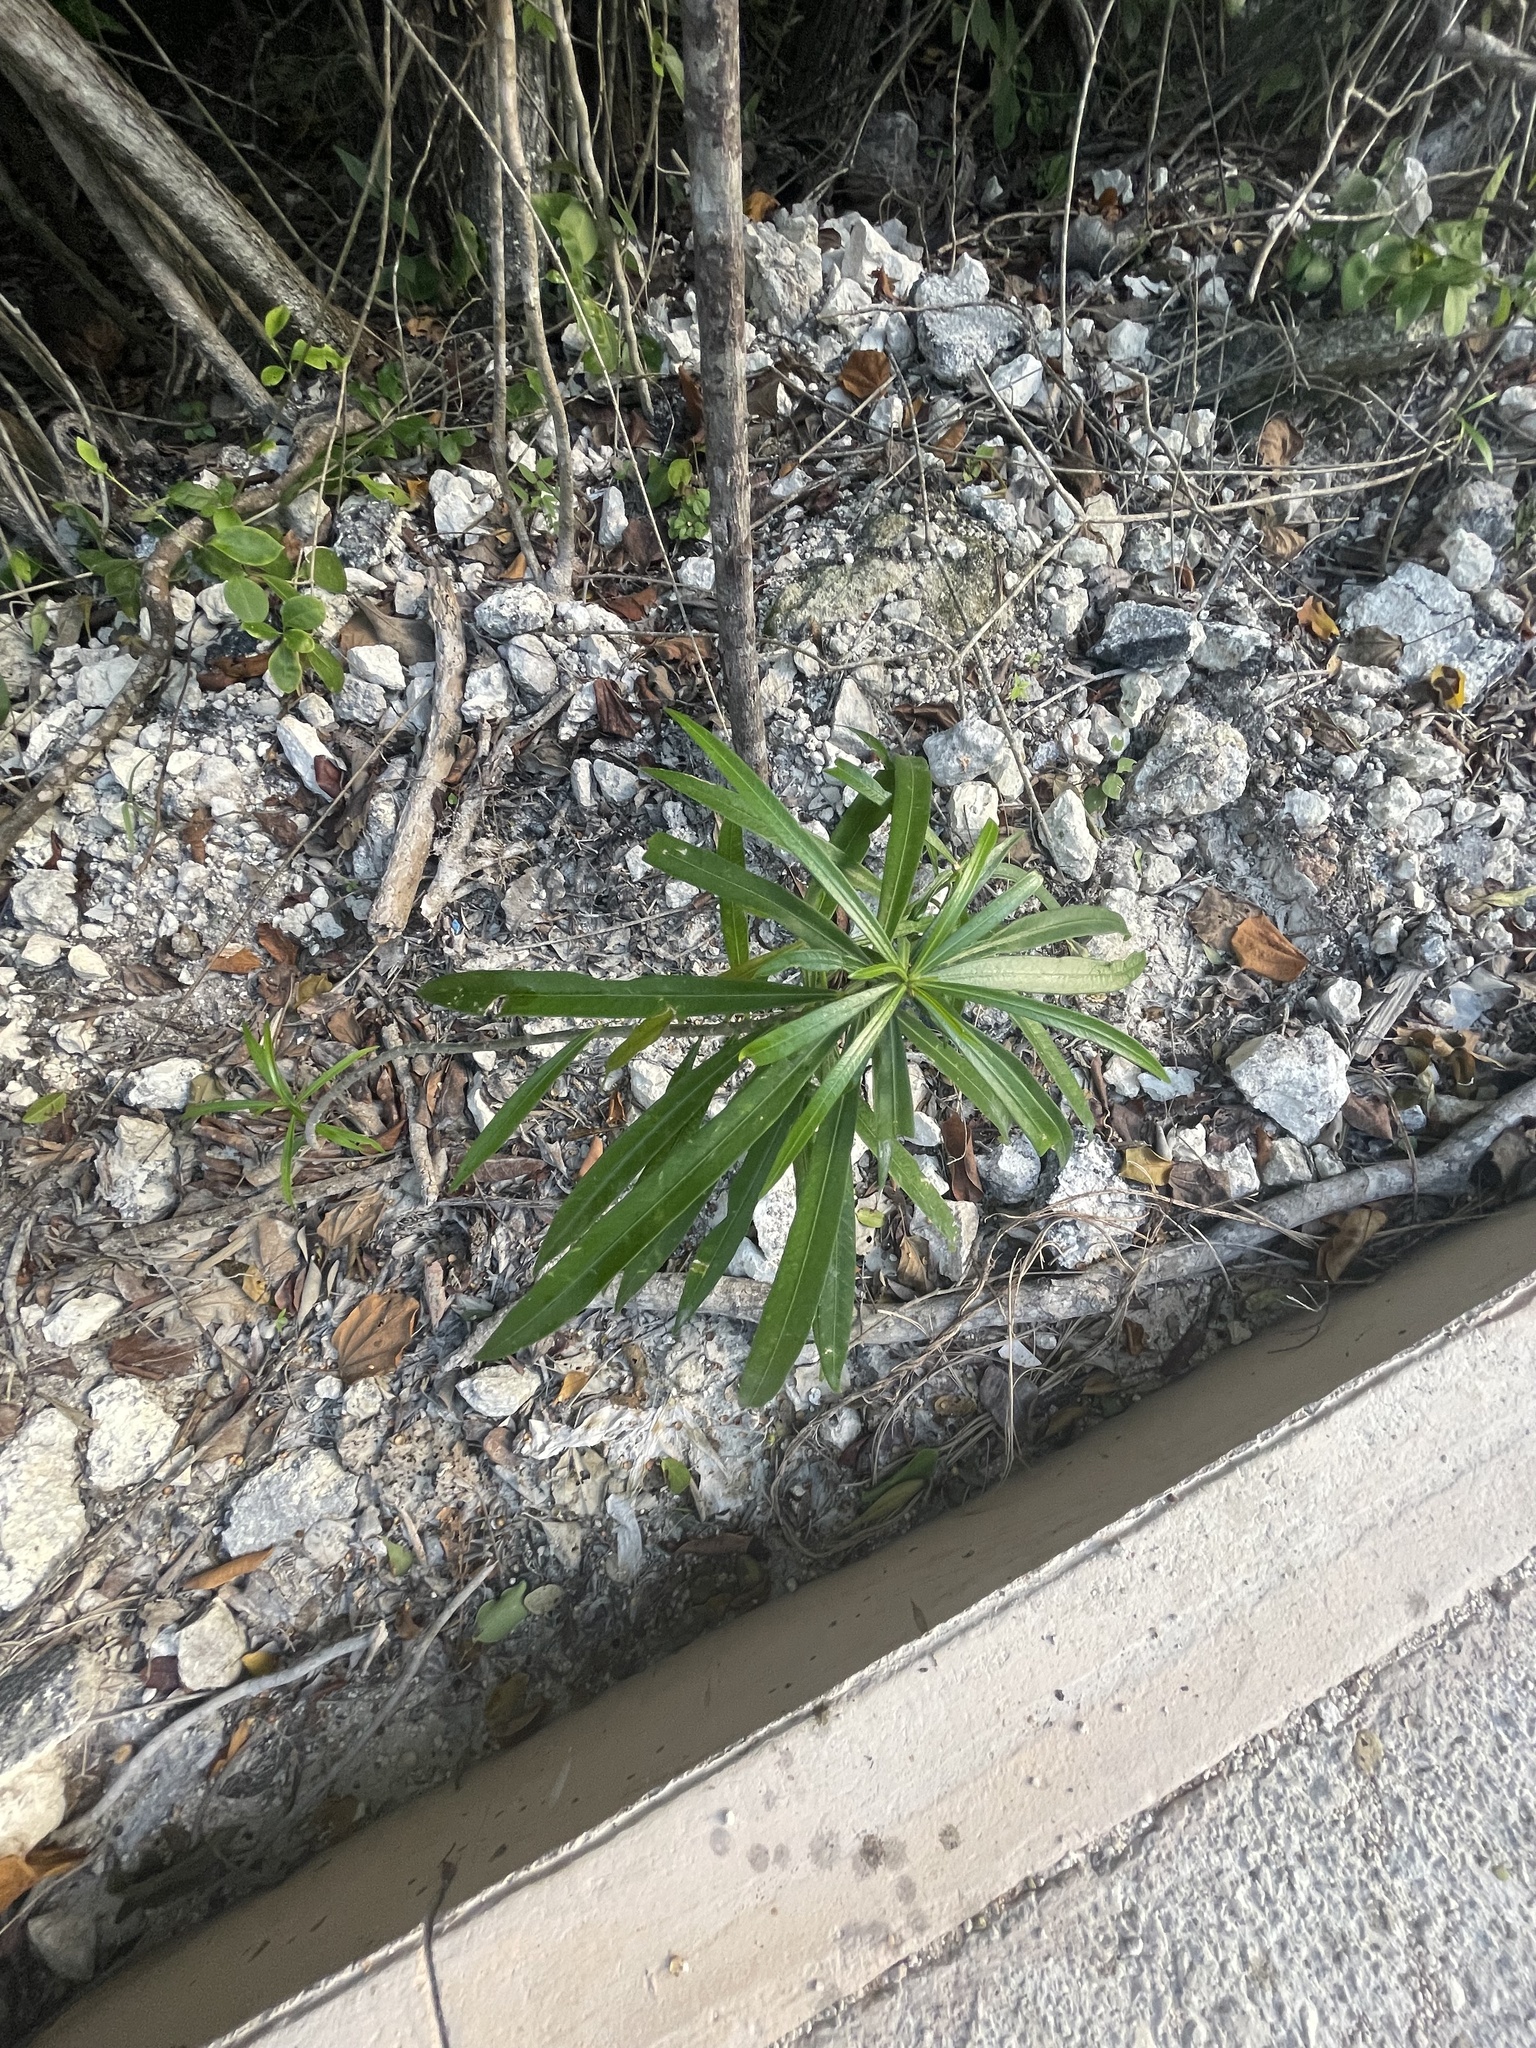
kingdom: Plantae
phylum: Tracheophyta
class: Magnoliopsida
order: Gentianales
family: Apocynaceae
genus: Cascabela
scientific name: Cascabela thevetia
